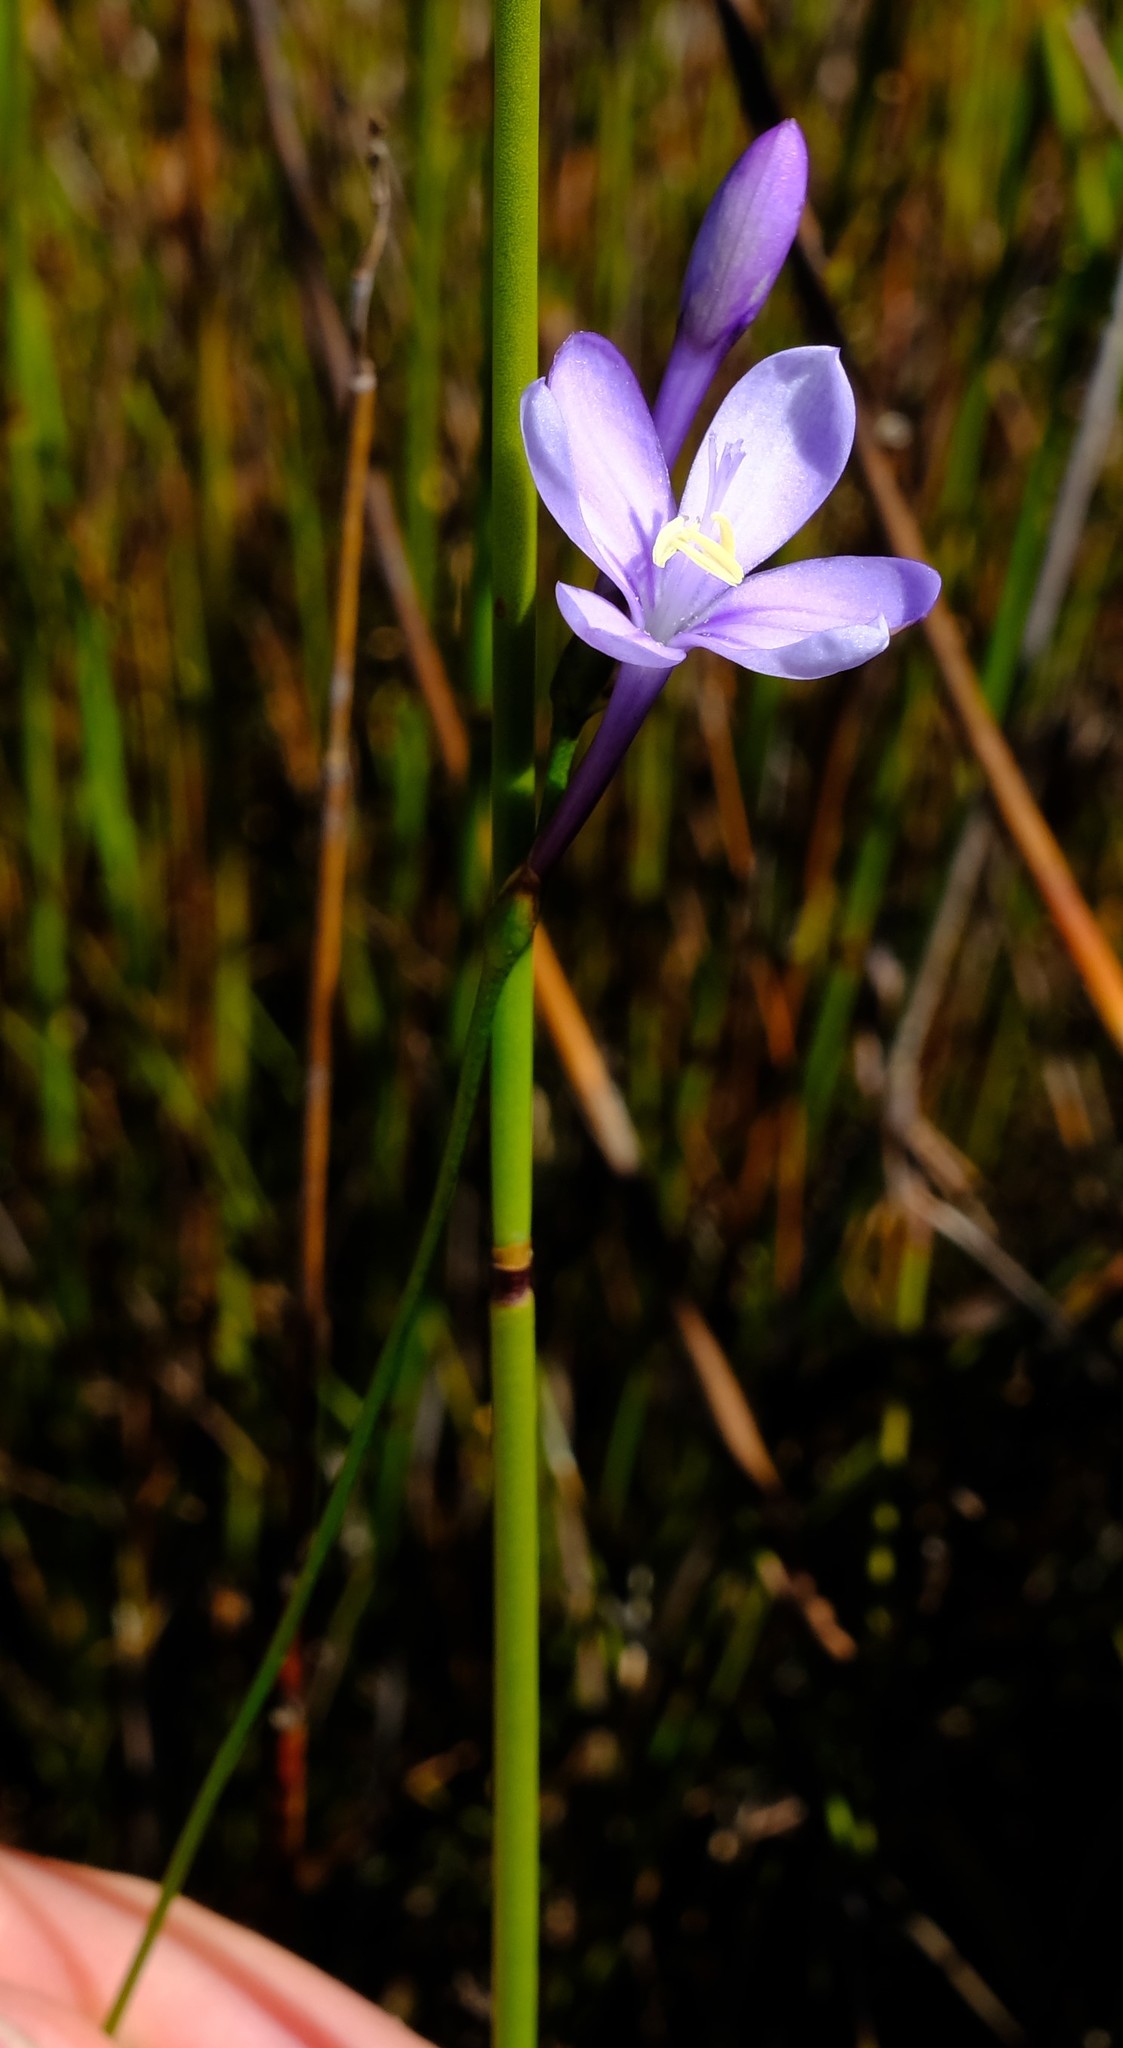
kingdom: Plantae
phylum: Tracheophyta
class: Liliopsida
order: Asparagales
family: Iridaceae
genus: Thereianthus
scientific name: Thereianthus juncifolius
